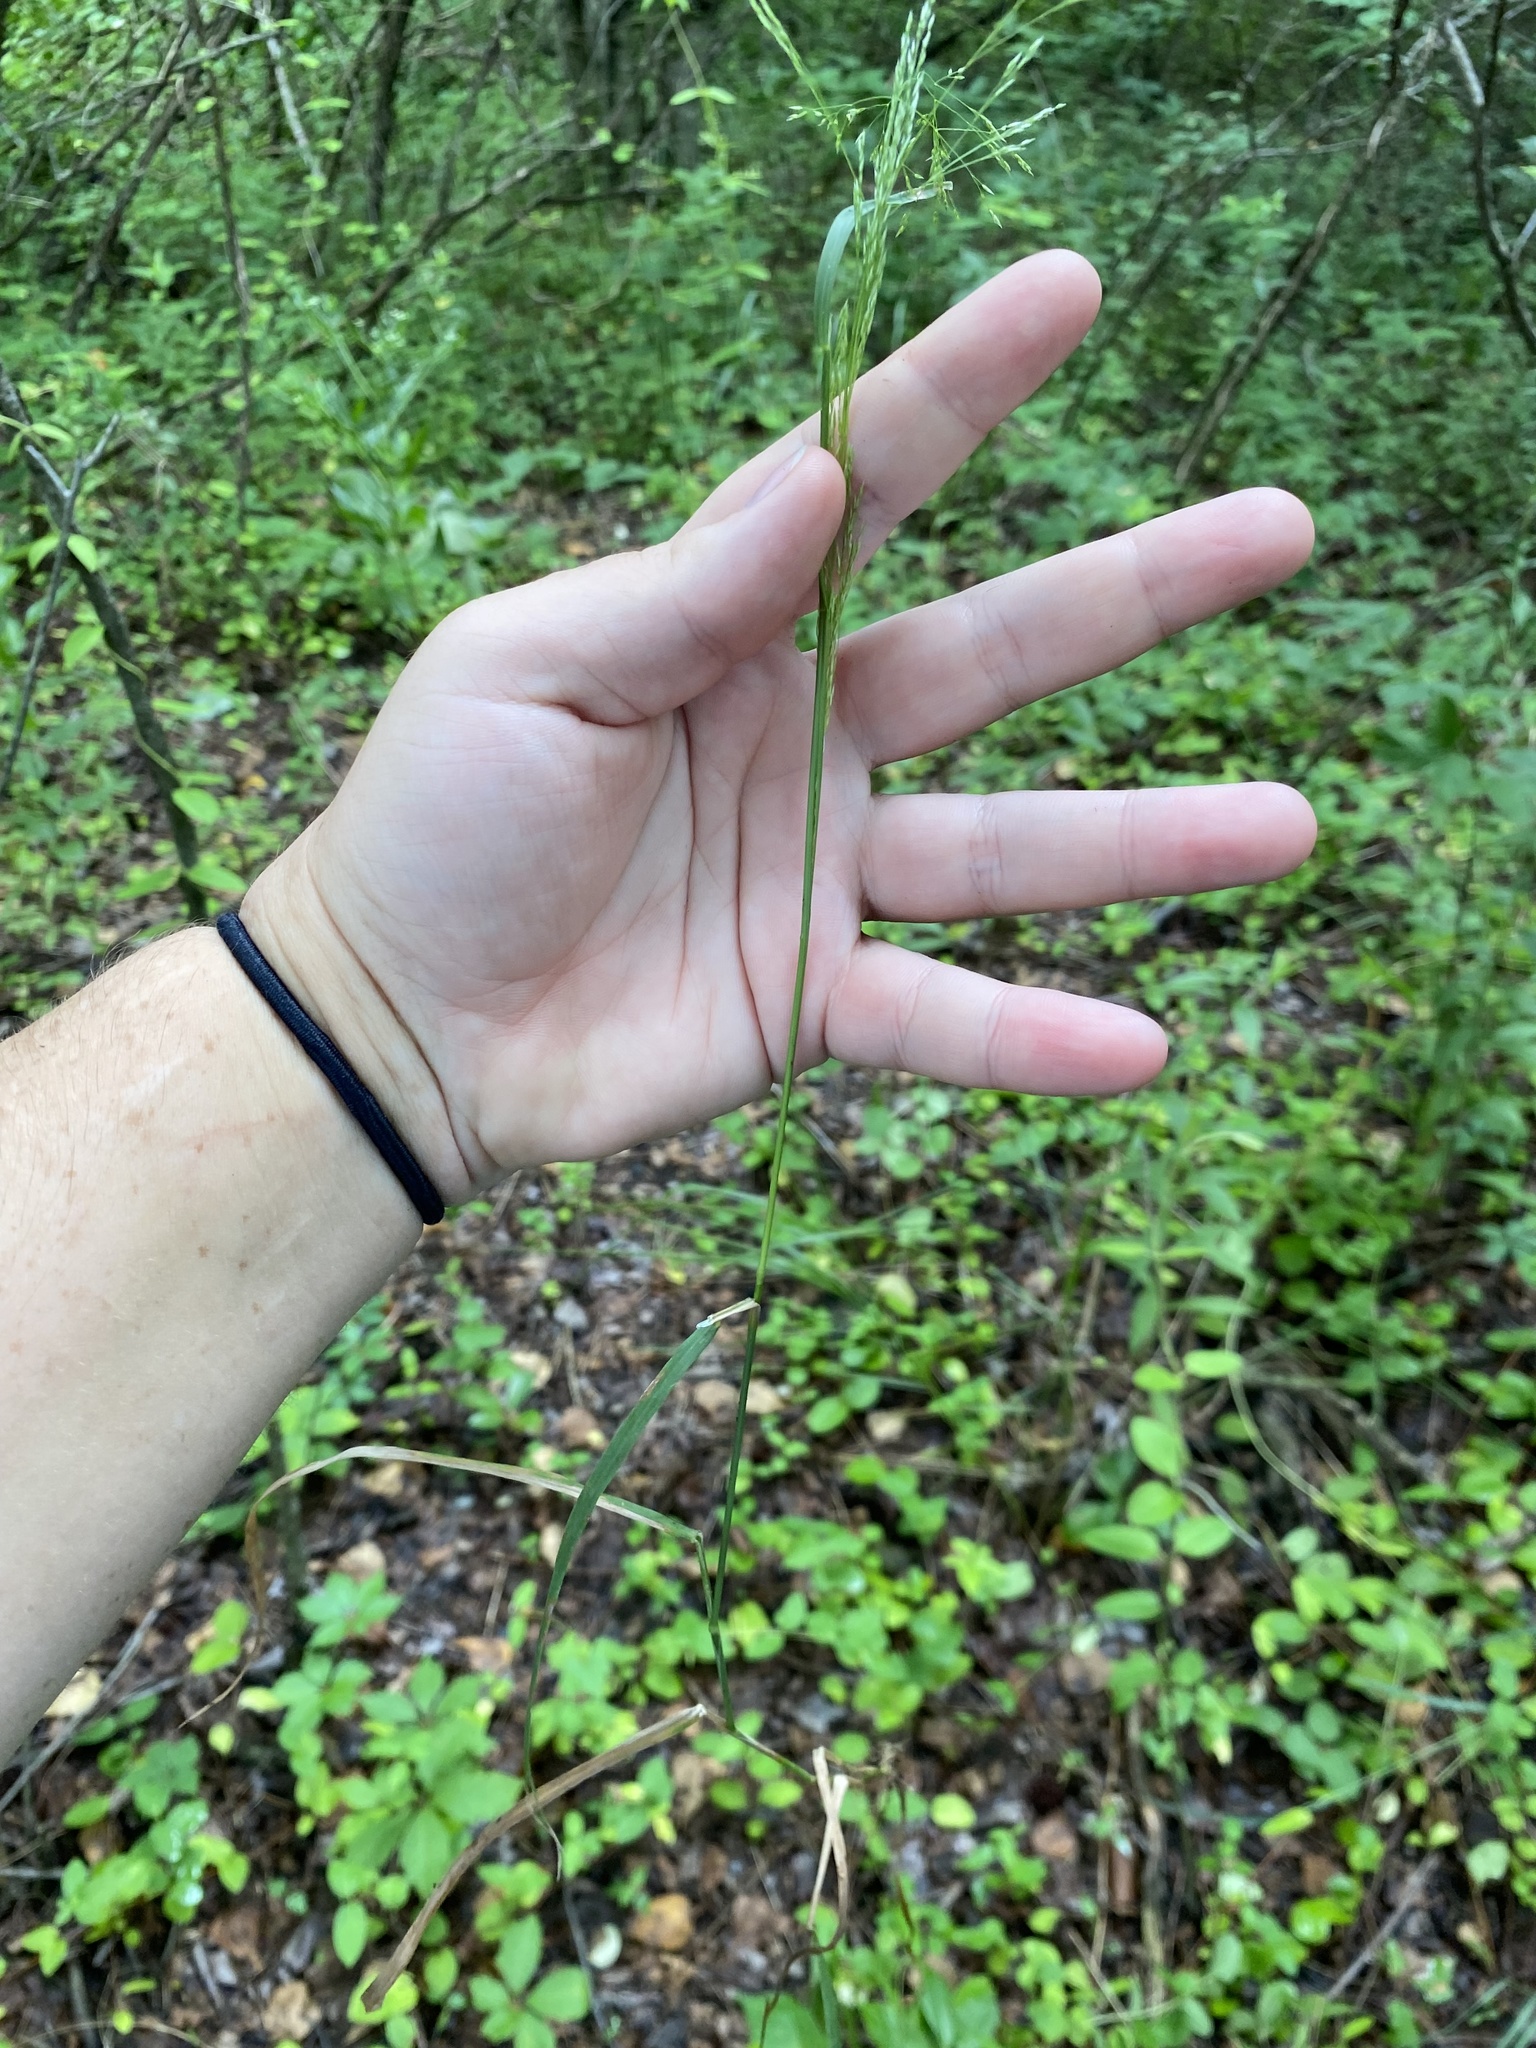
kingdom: Plantae
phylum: Tracheophyta
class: Liliopsida
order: Poales
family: Poaceae
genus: Cinna
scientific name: Cinna arundinacea
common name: Stout woodreed
